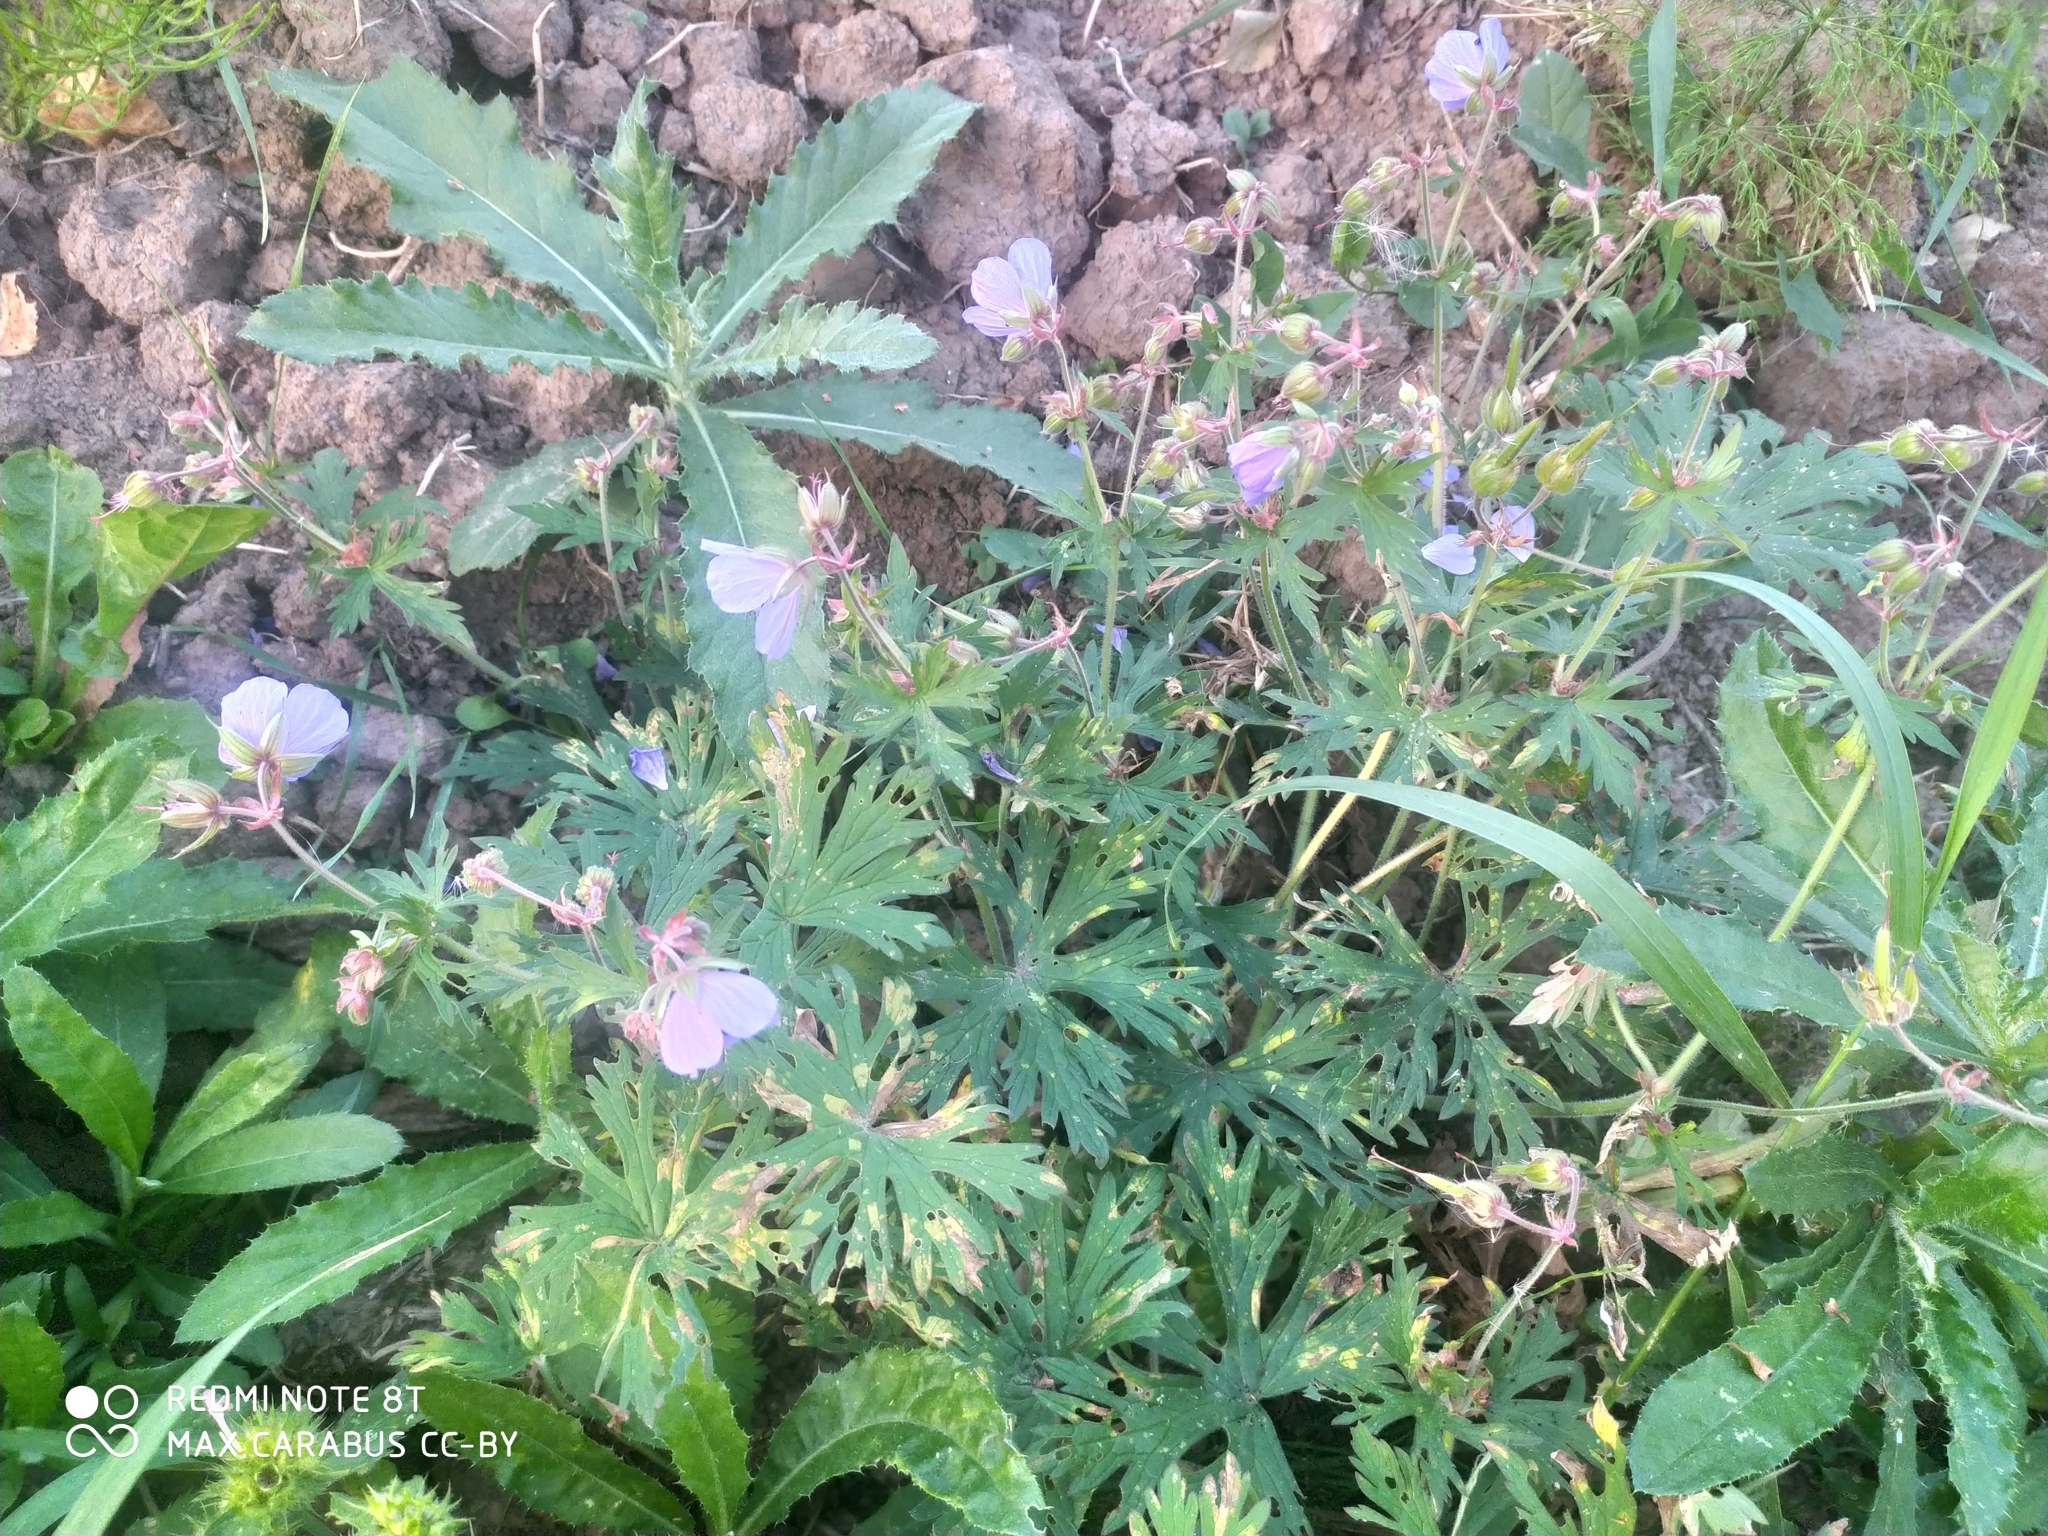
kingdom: Plantae
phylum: Tracheophyta
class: Magnoliopsida
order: Geraniales
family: Geraniaceae
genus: Geranium
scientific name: Geranium pratense
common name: Meadow crane's-bill
